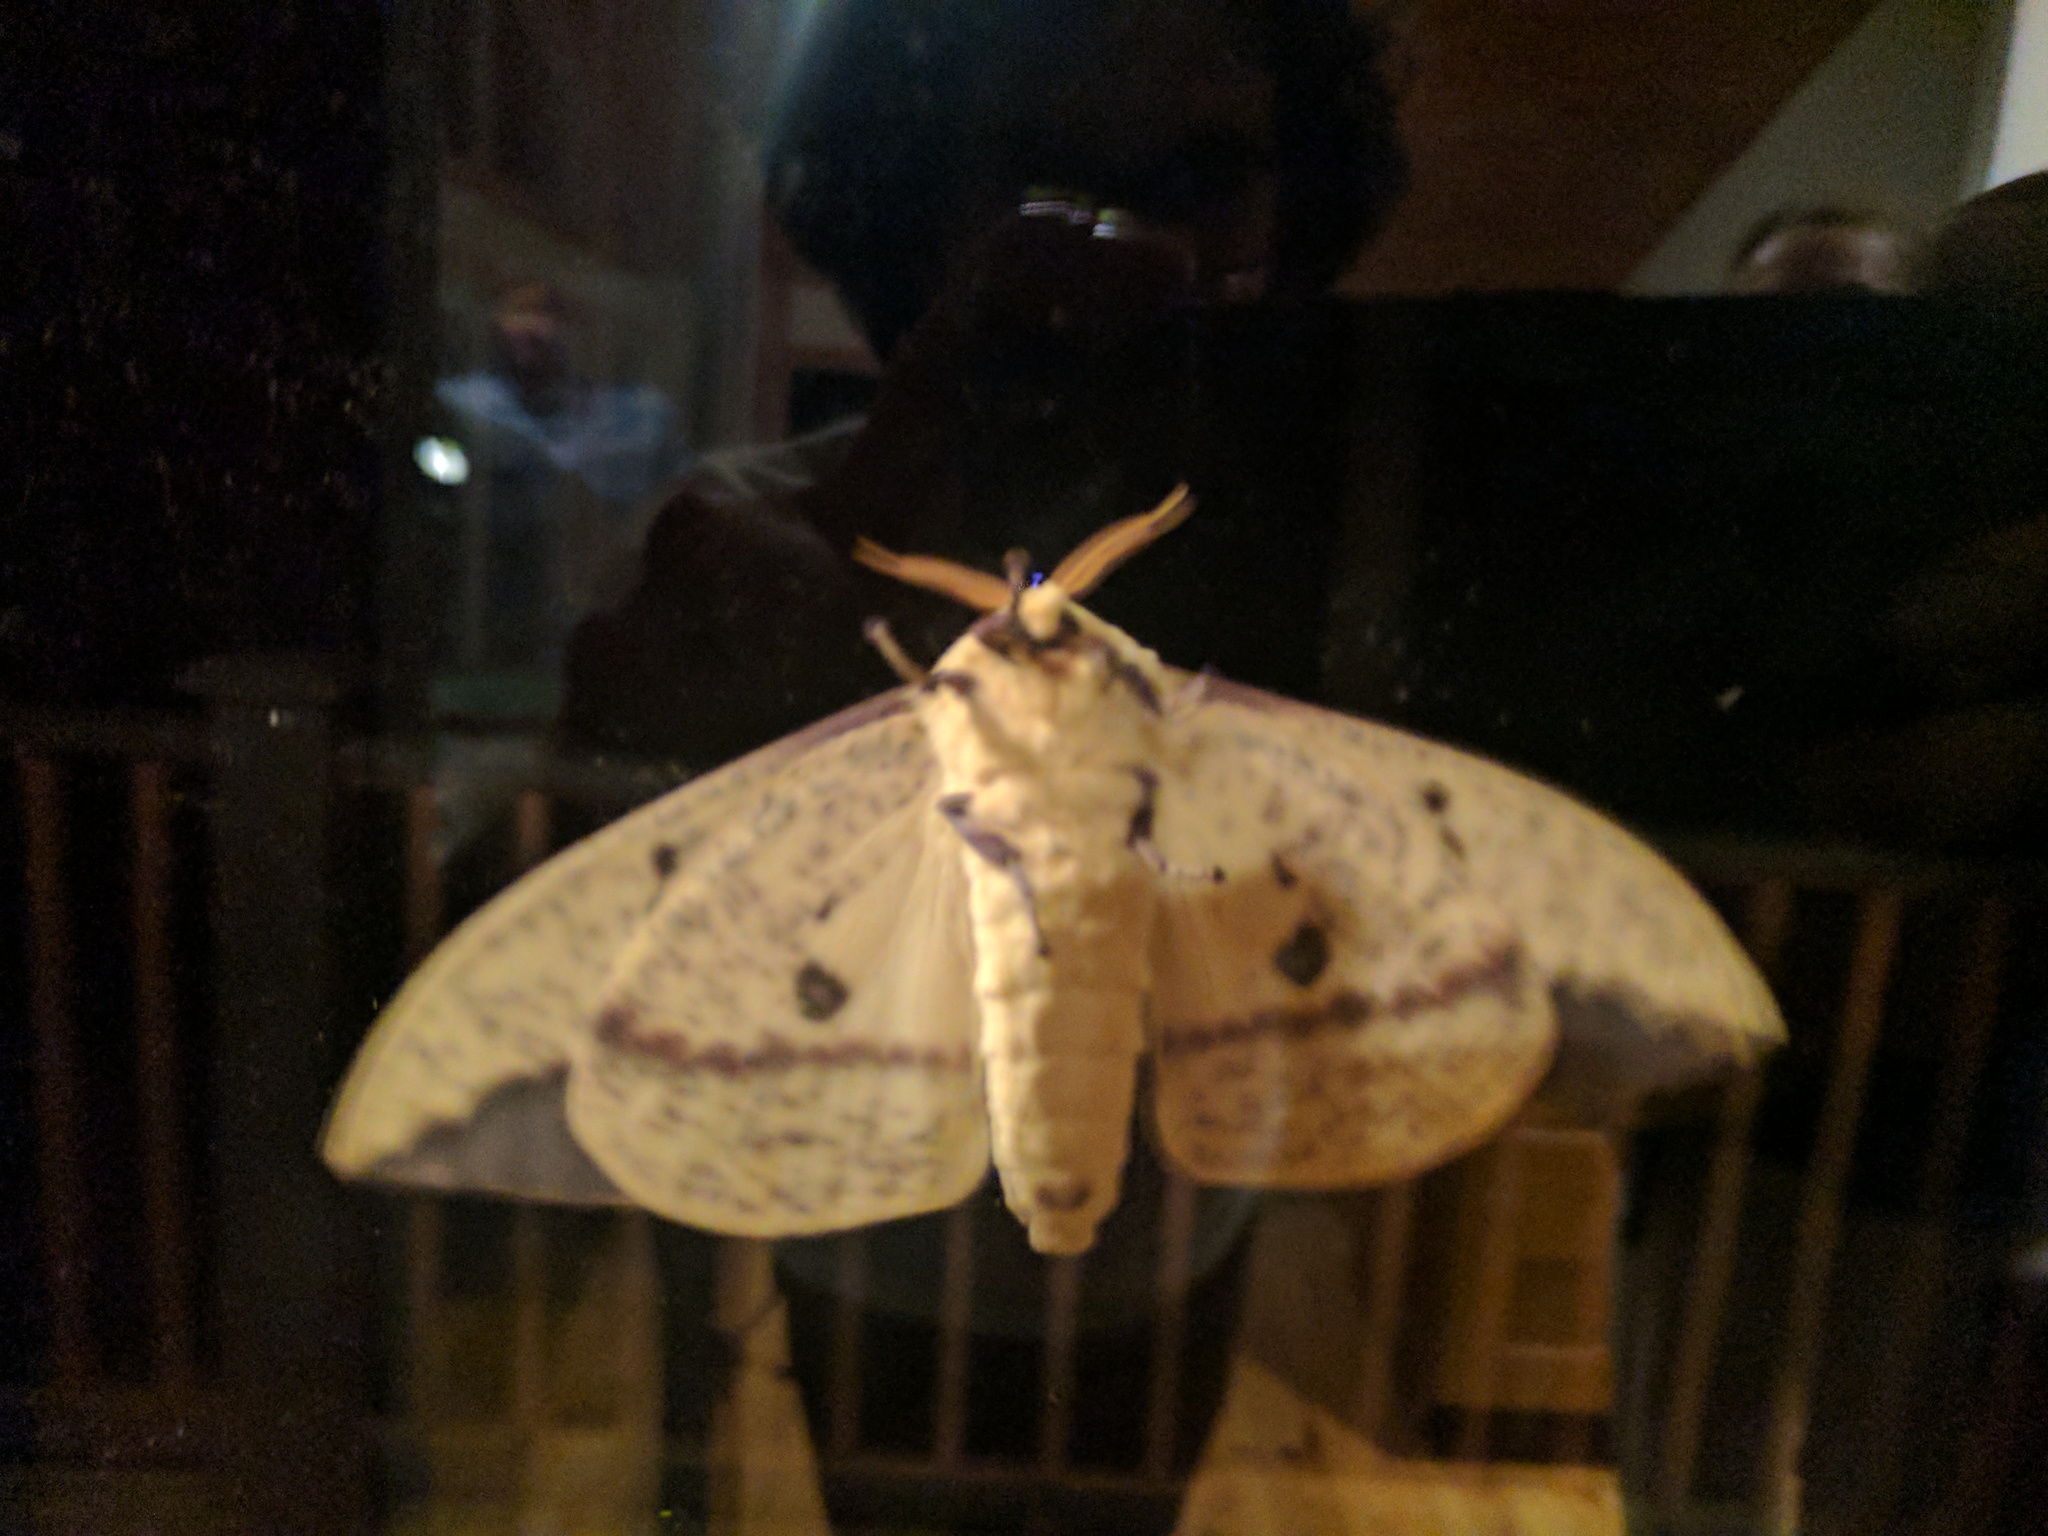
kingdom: Animalia
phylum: Arthropoda
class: Insecta
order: Lepidoptera
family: Saturniidae
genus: Eacles
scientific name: Eacles
